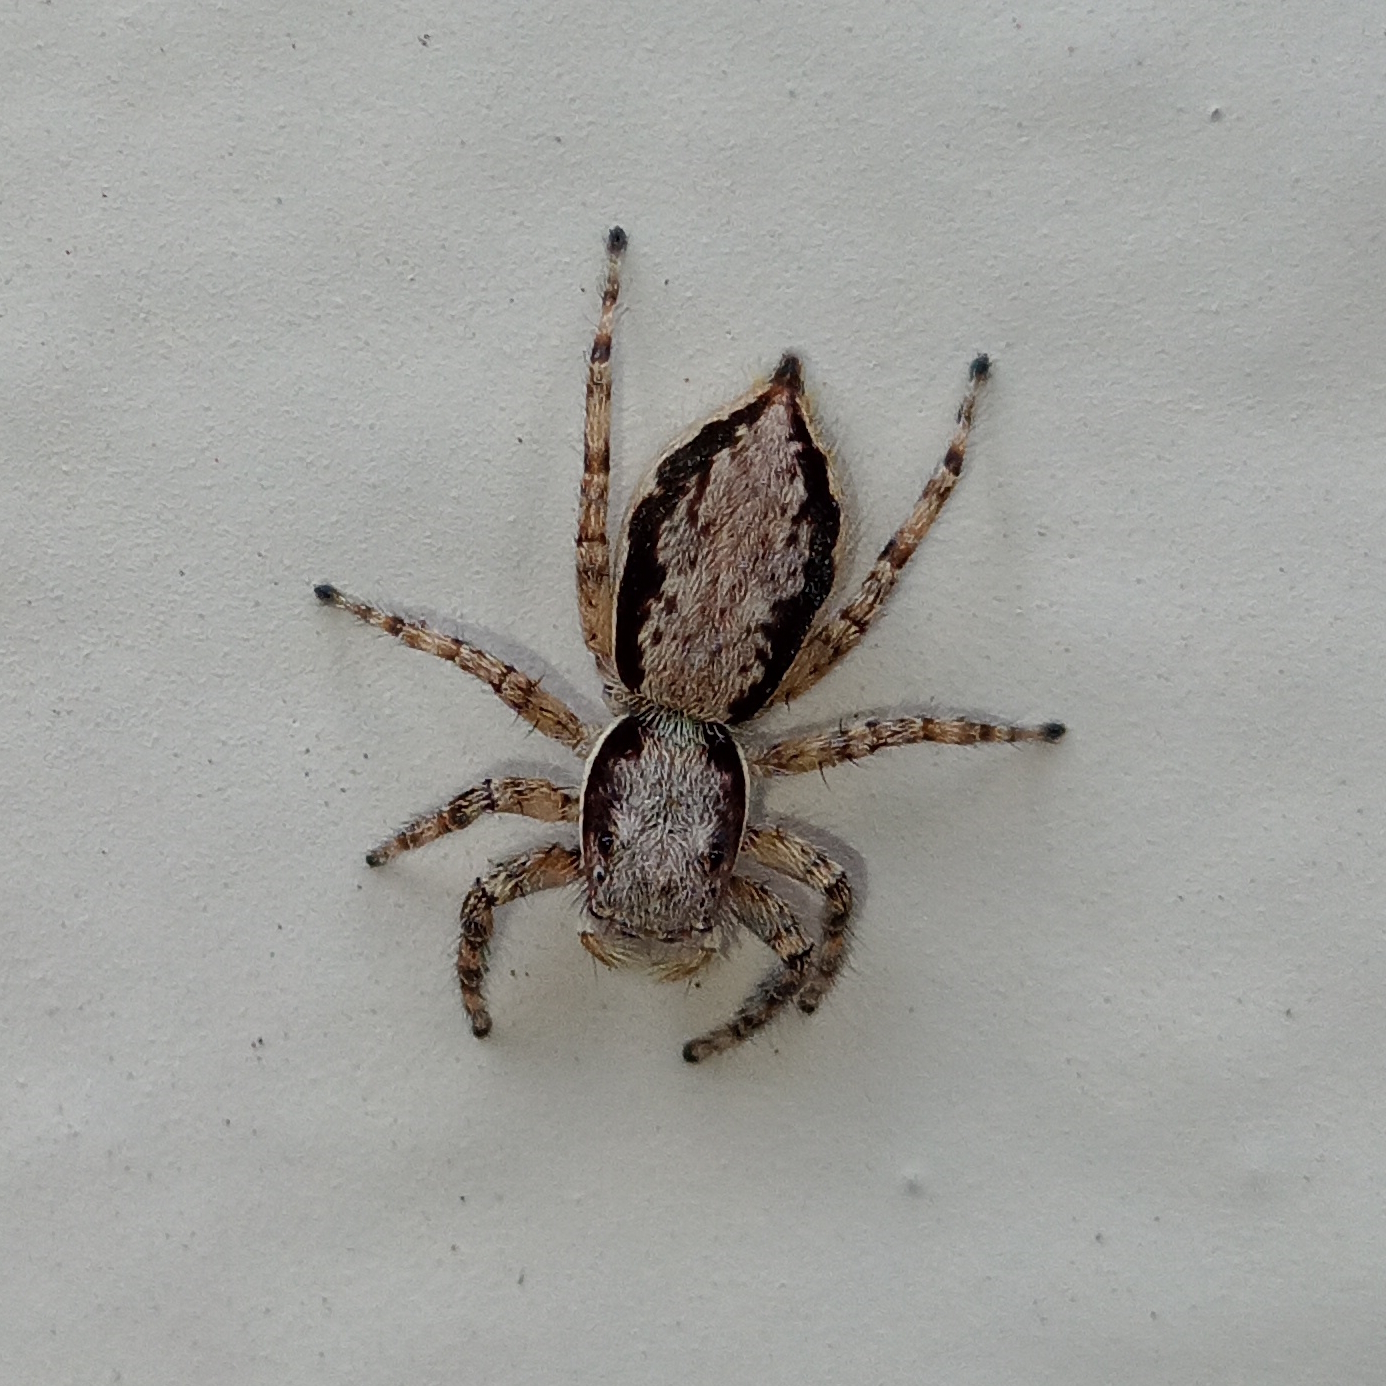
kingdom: Animalia
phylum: Arthropoda
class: Arachnida
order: Araneae
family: Salticidae
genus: Menemerus
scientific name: Menemerus bivittatus
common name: Gray wall jumper
